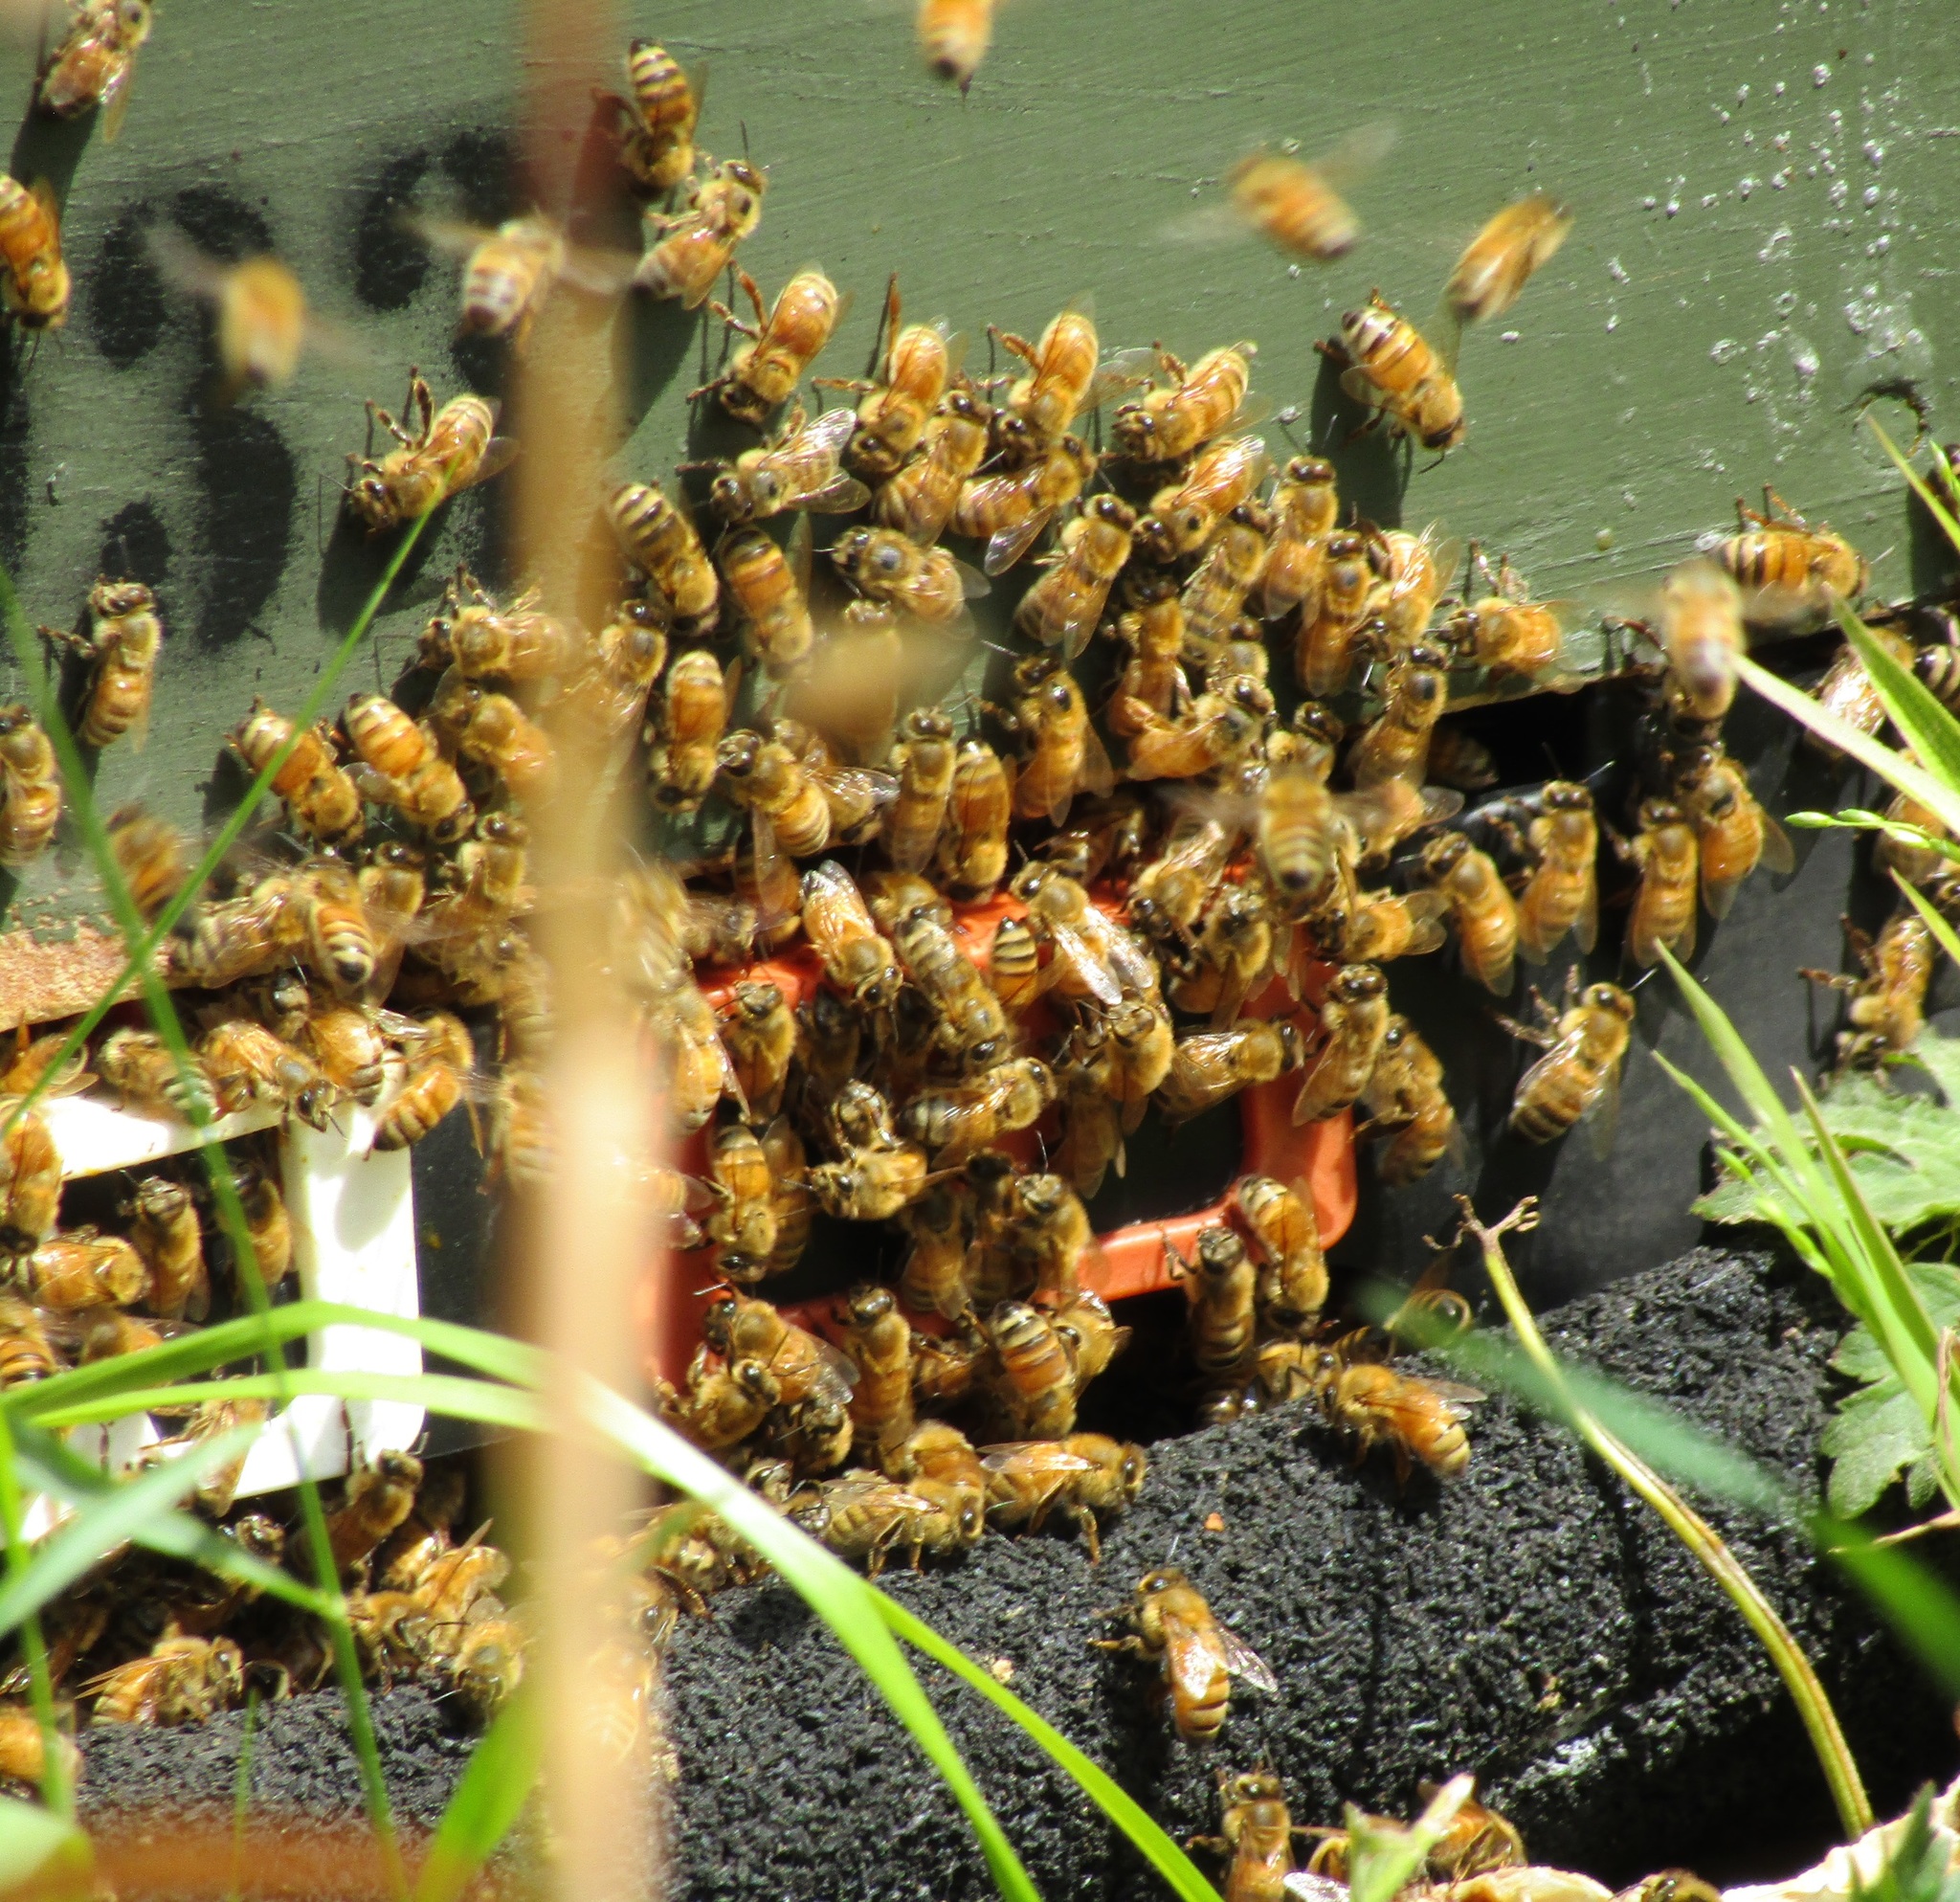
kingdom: Animalia
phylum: Arthropoda
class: Insecta
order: Hymenoptera
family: Apidae
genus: Apis
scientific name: Apis mellifera
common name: Honey bee
